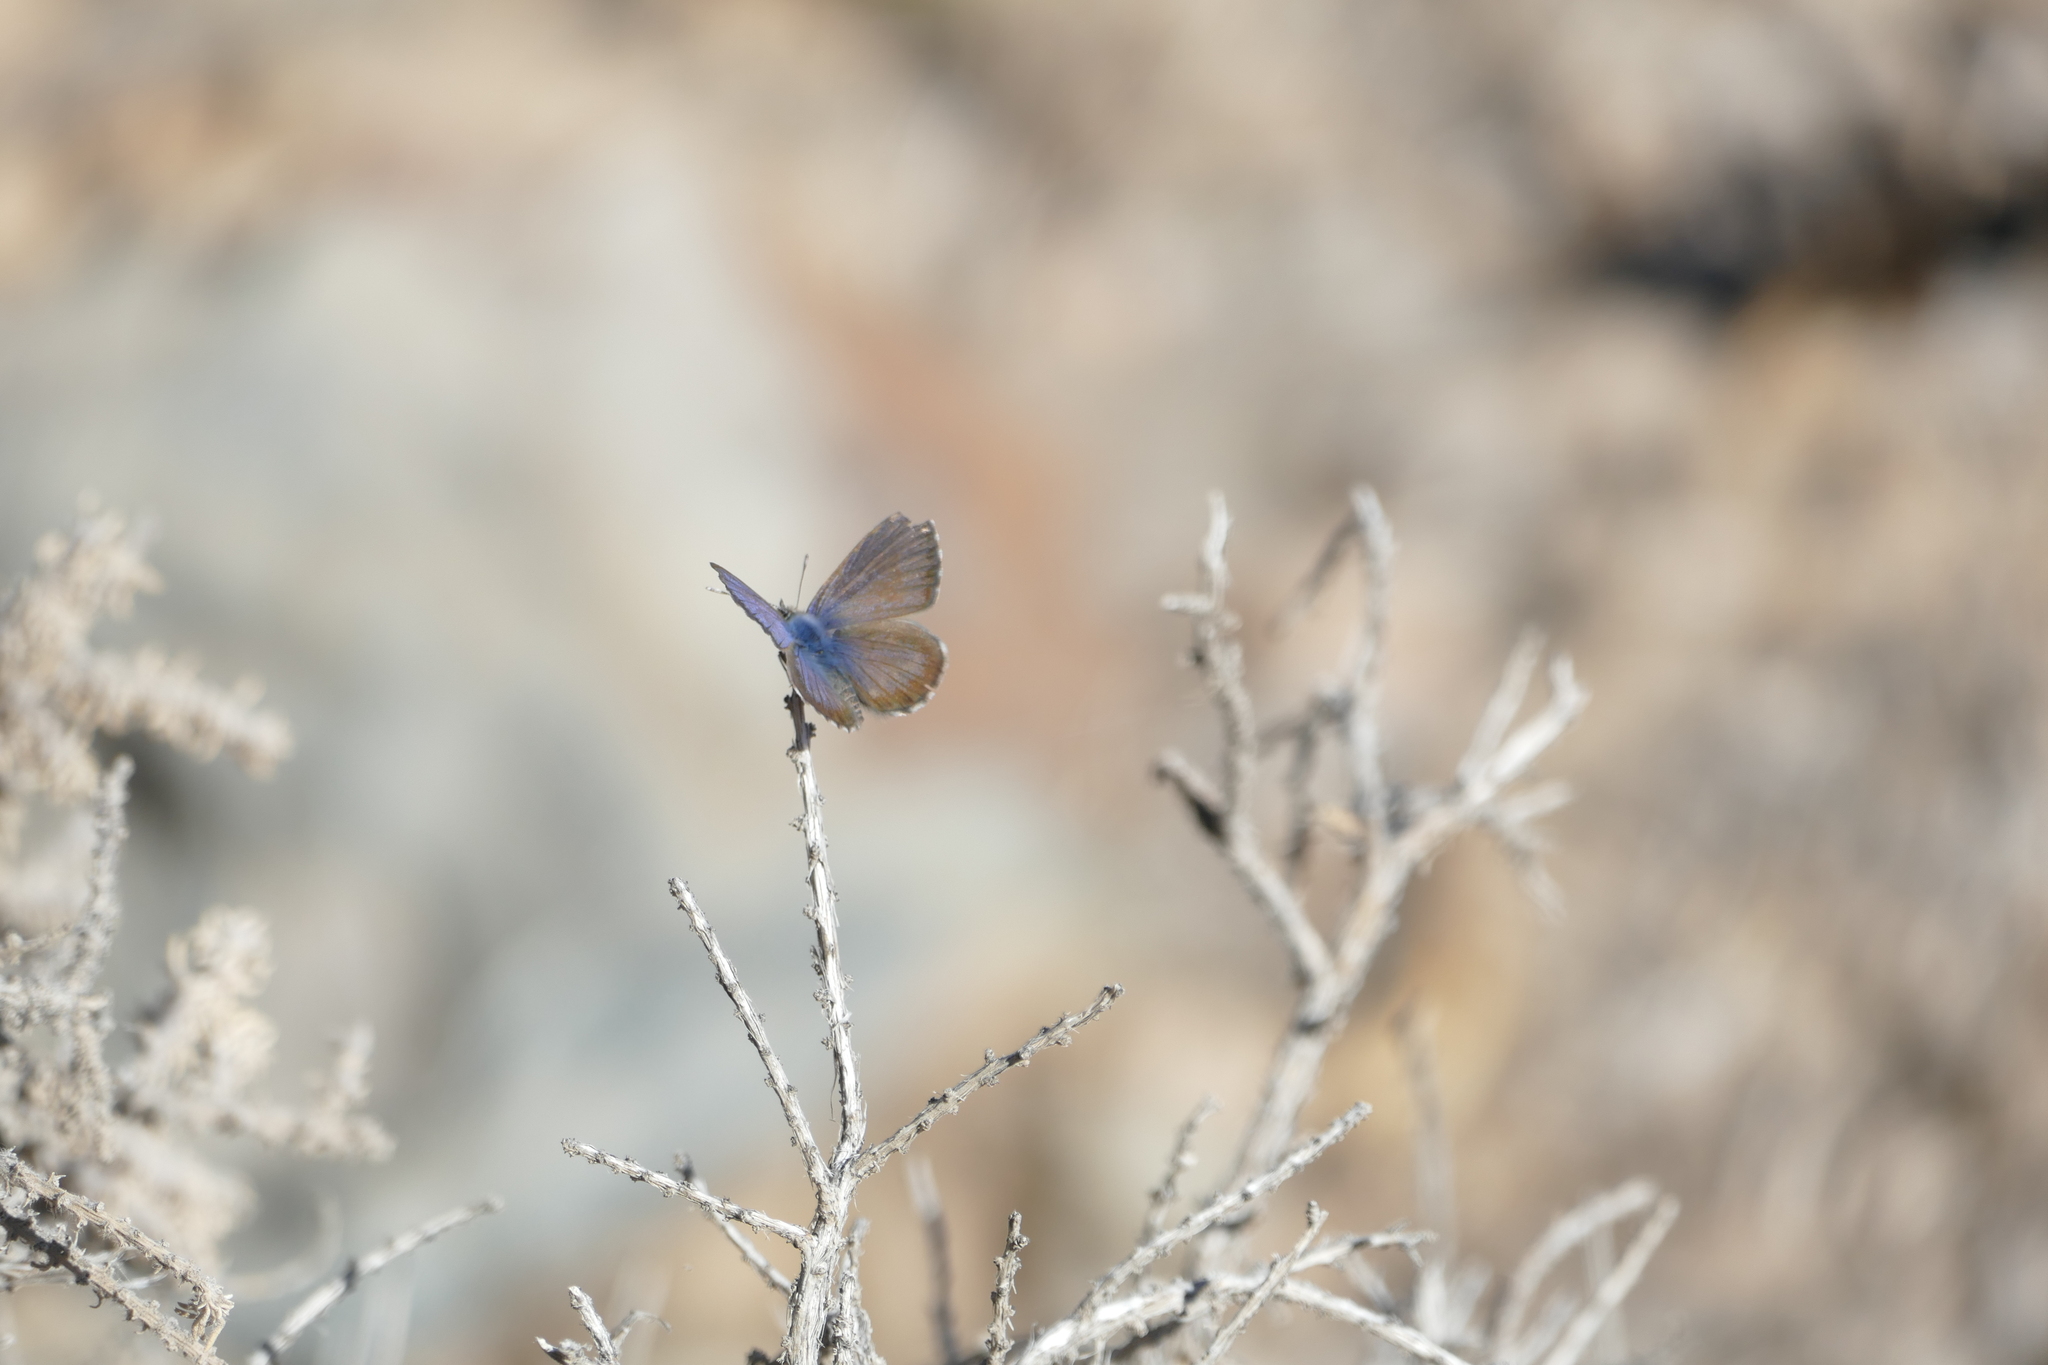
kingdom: Animalia
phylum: Arthropoda
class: Insecta
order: Lepidoptera
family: Lycaenidae
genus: Cyclyrius
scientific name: Cyclyrius webbianus
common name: Canary blue
